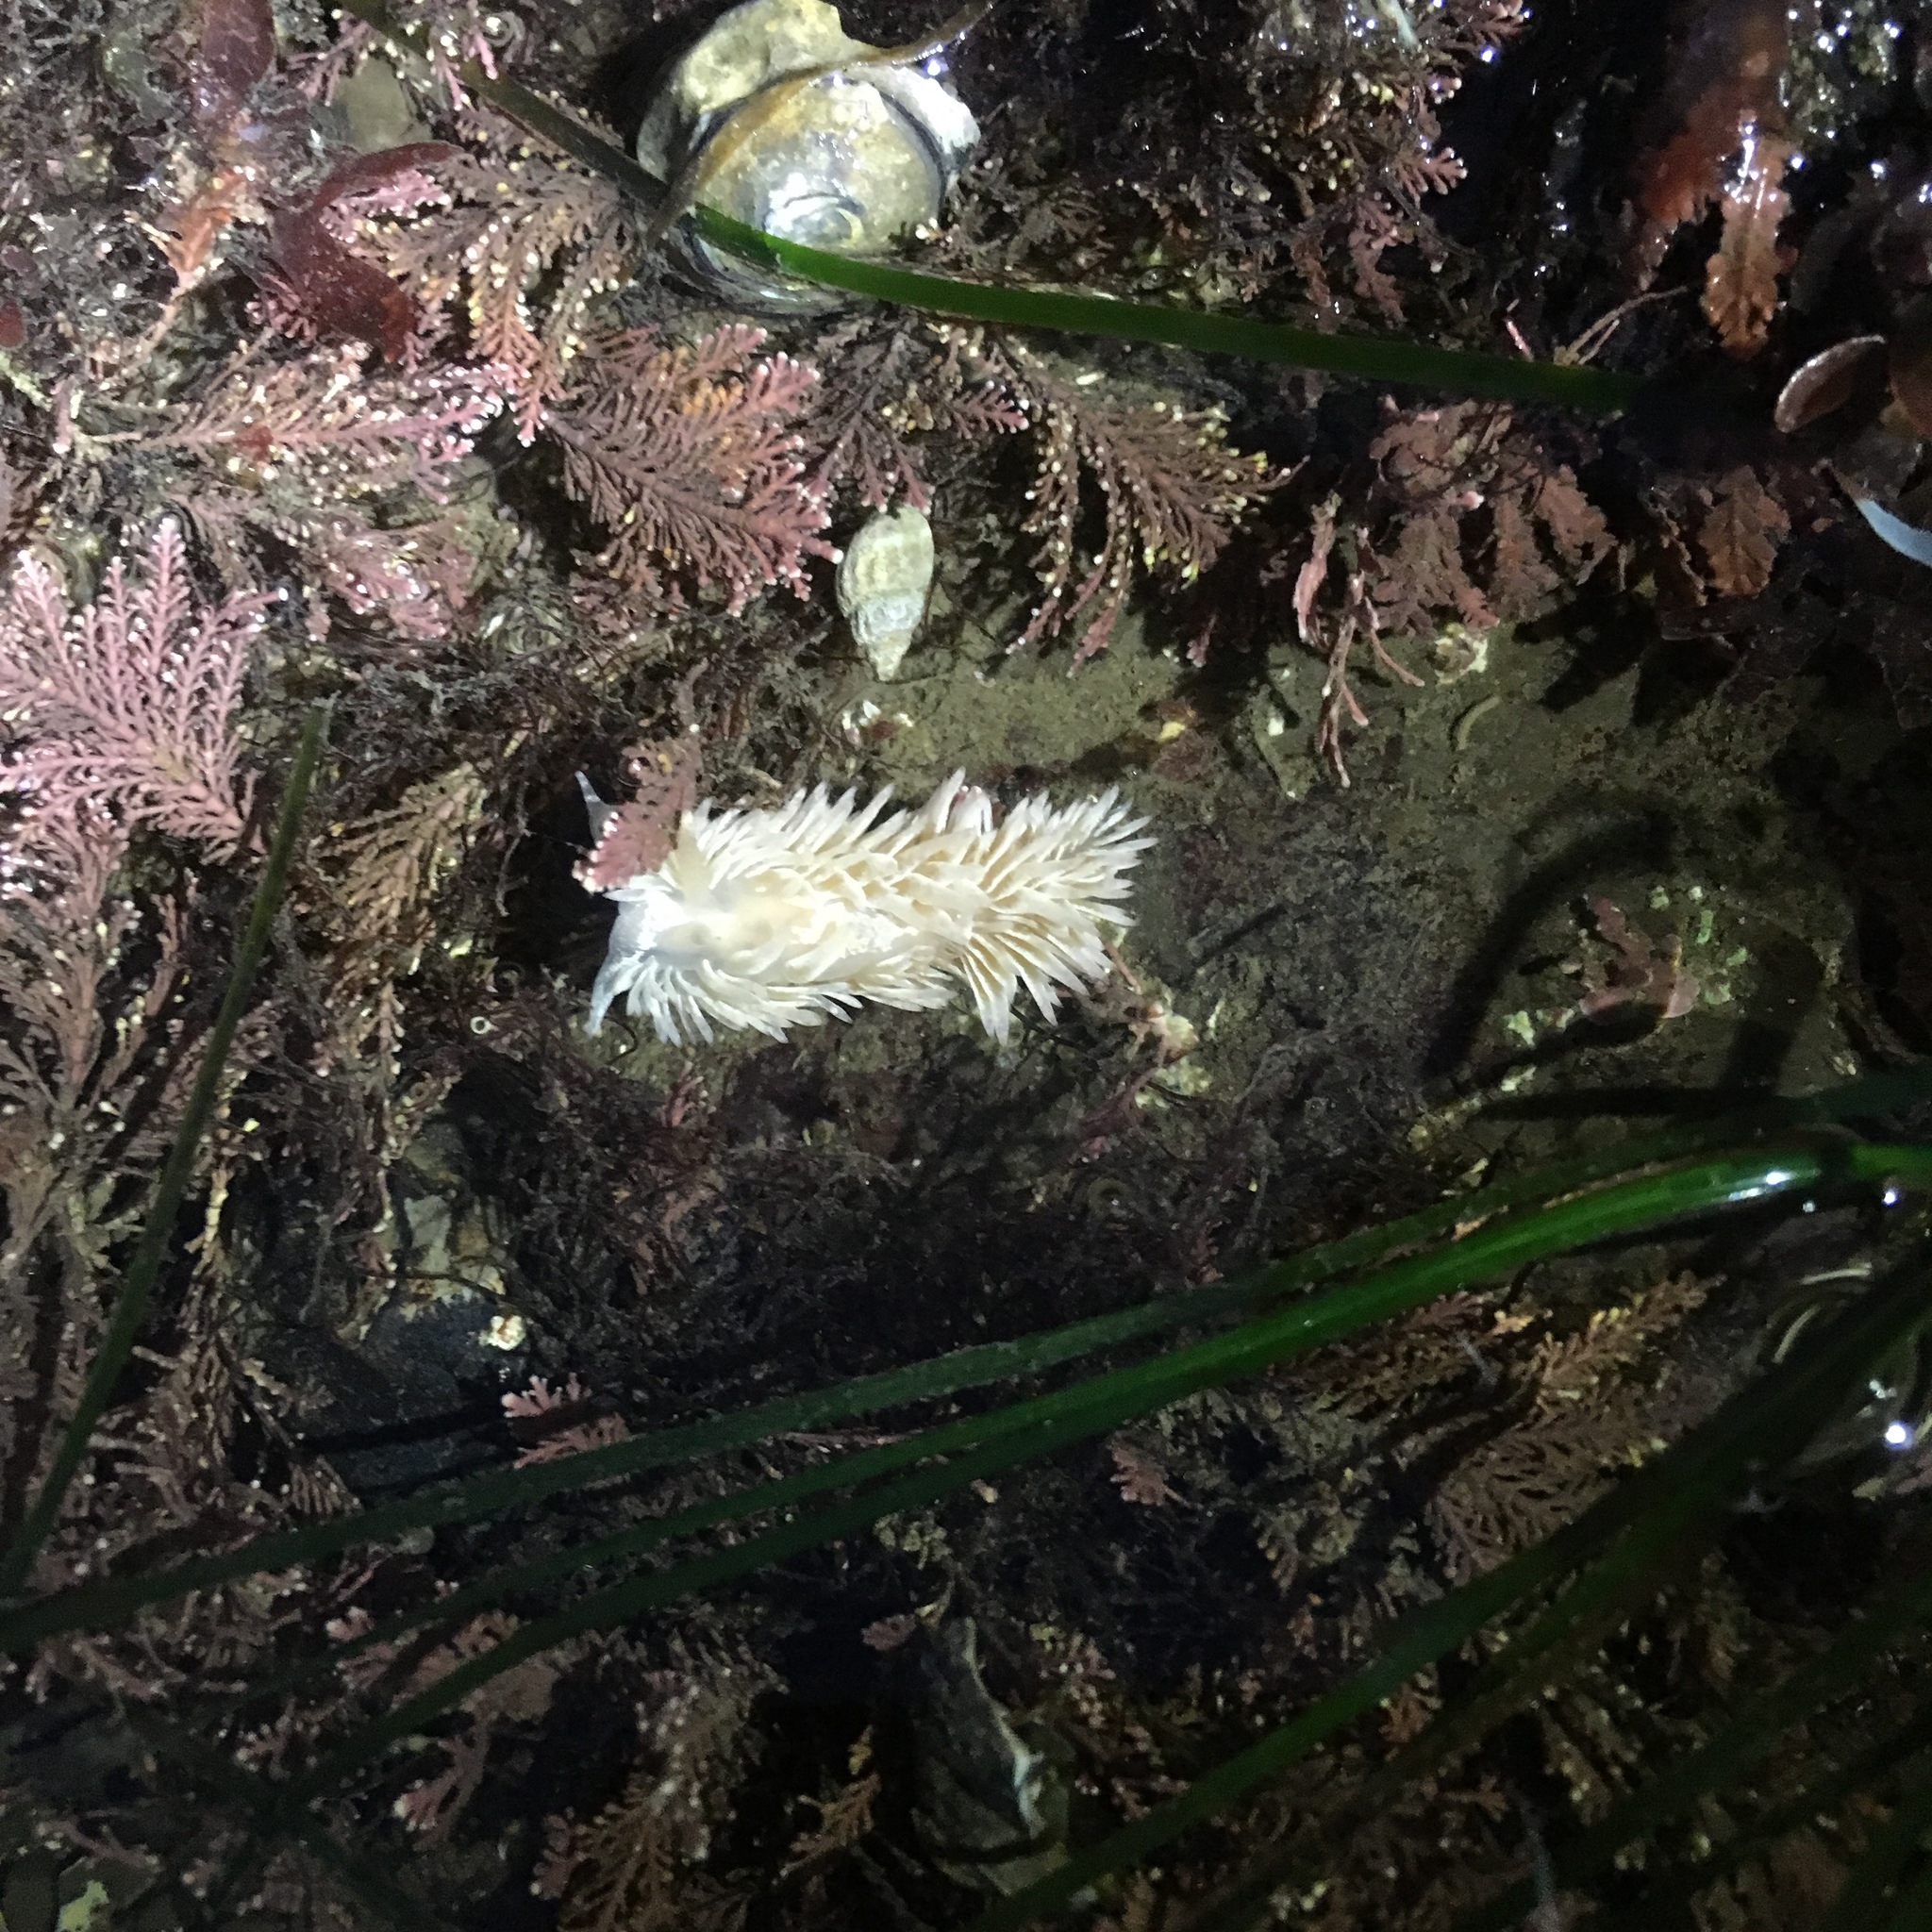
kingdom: Animalia
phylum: Mollusca
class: Gastropoda
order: Nudibranchia
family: Aeolidiidae
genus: Aeolidia
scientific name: Aeolidia loui
